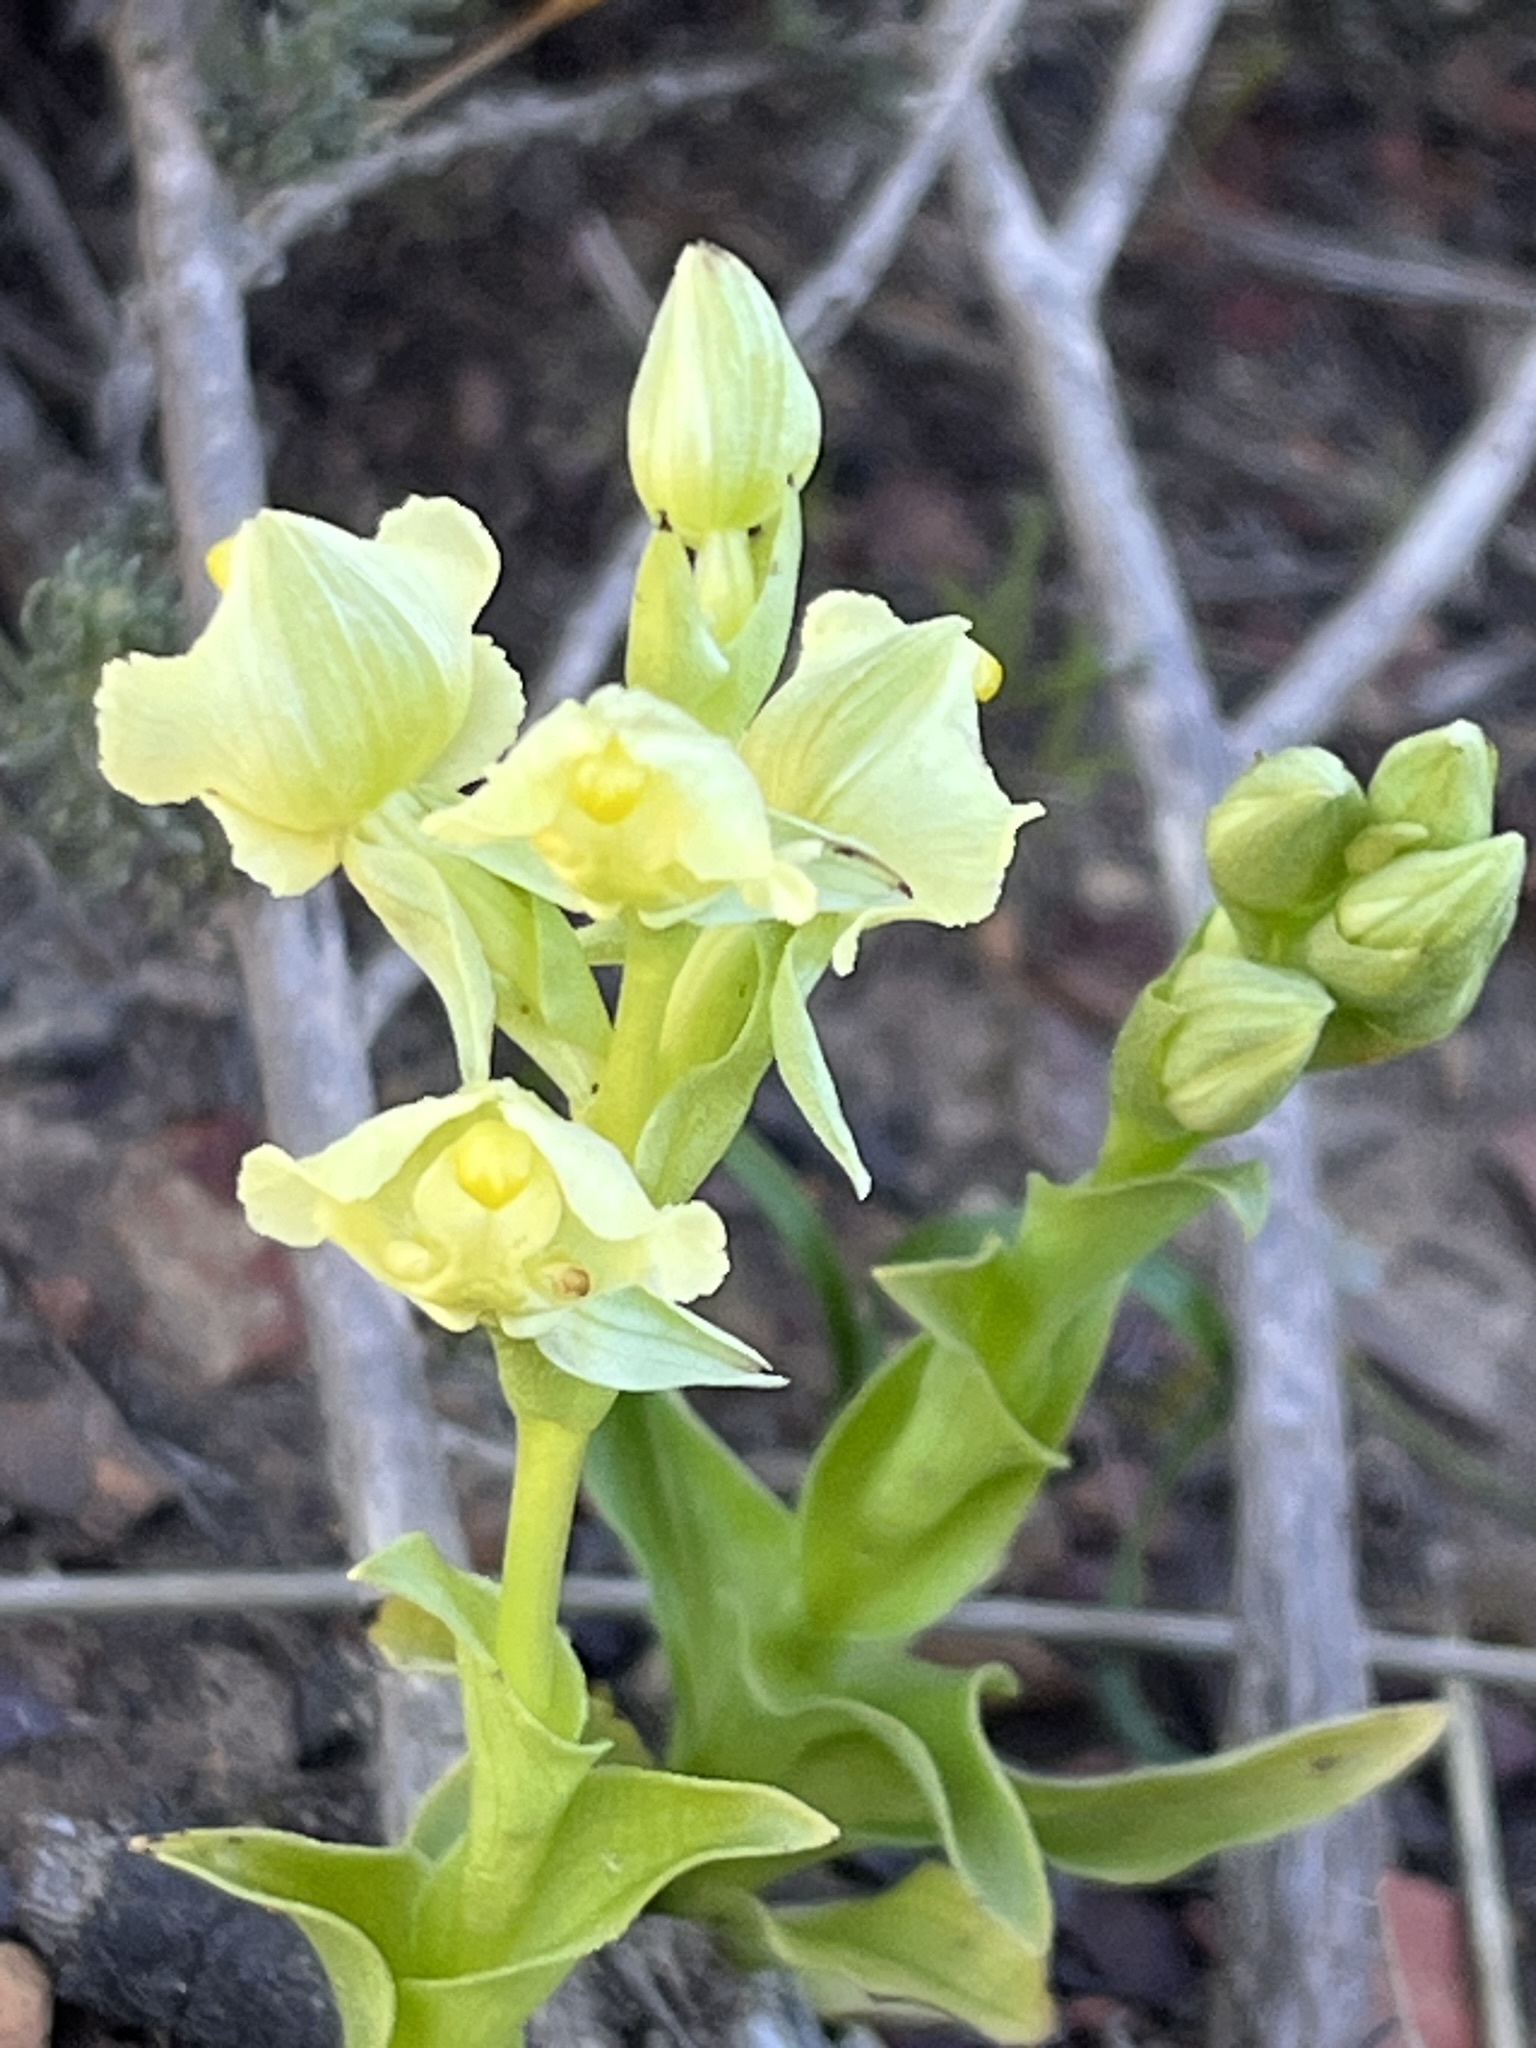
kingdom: Plantae
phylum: Tracheophyta
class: Liliopsida
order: Asparagales
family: Orchidaceae
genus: Pterygodium
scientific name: Pterygodium alatum
